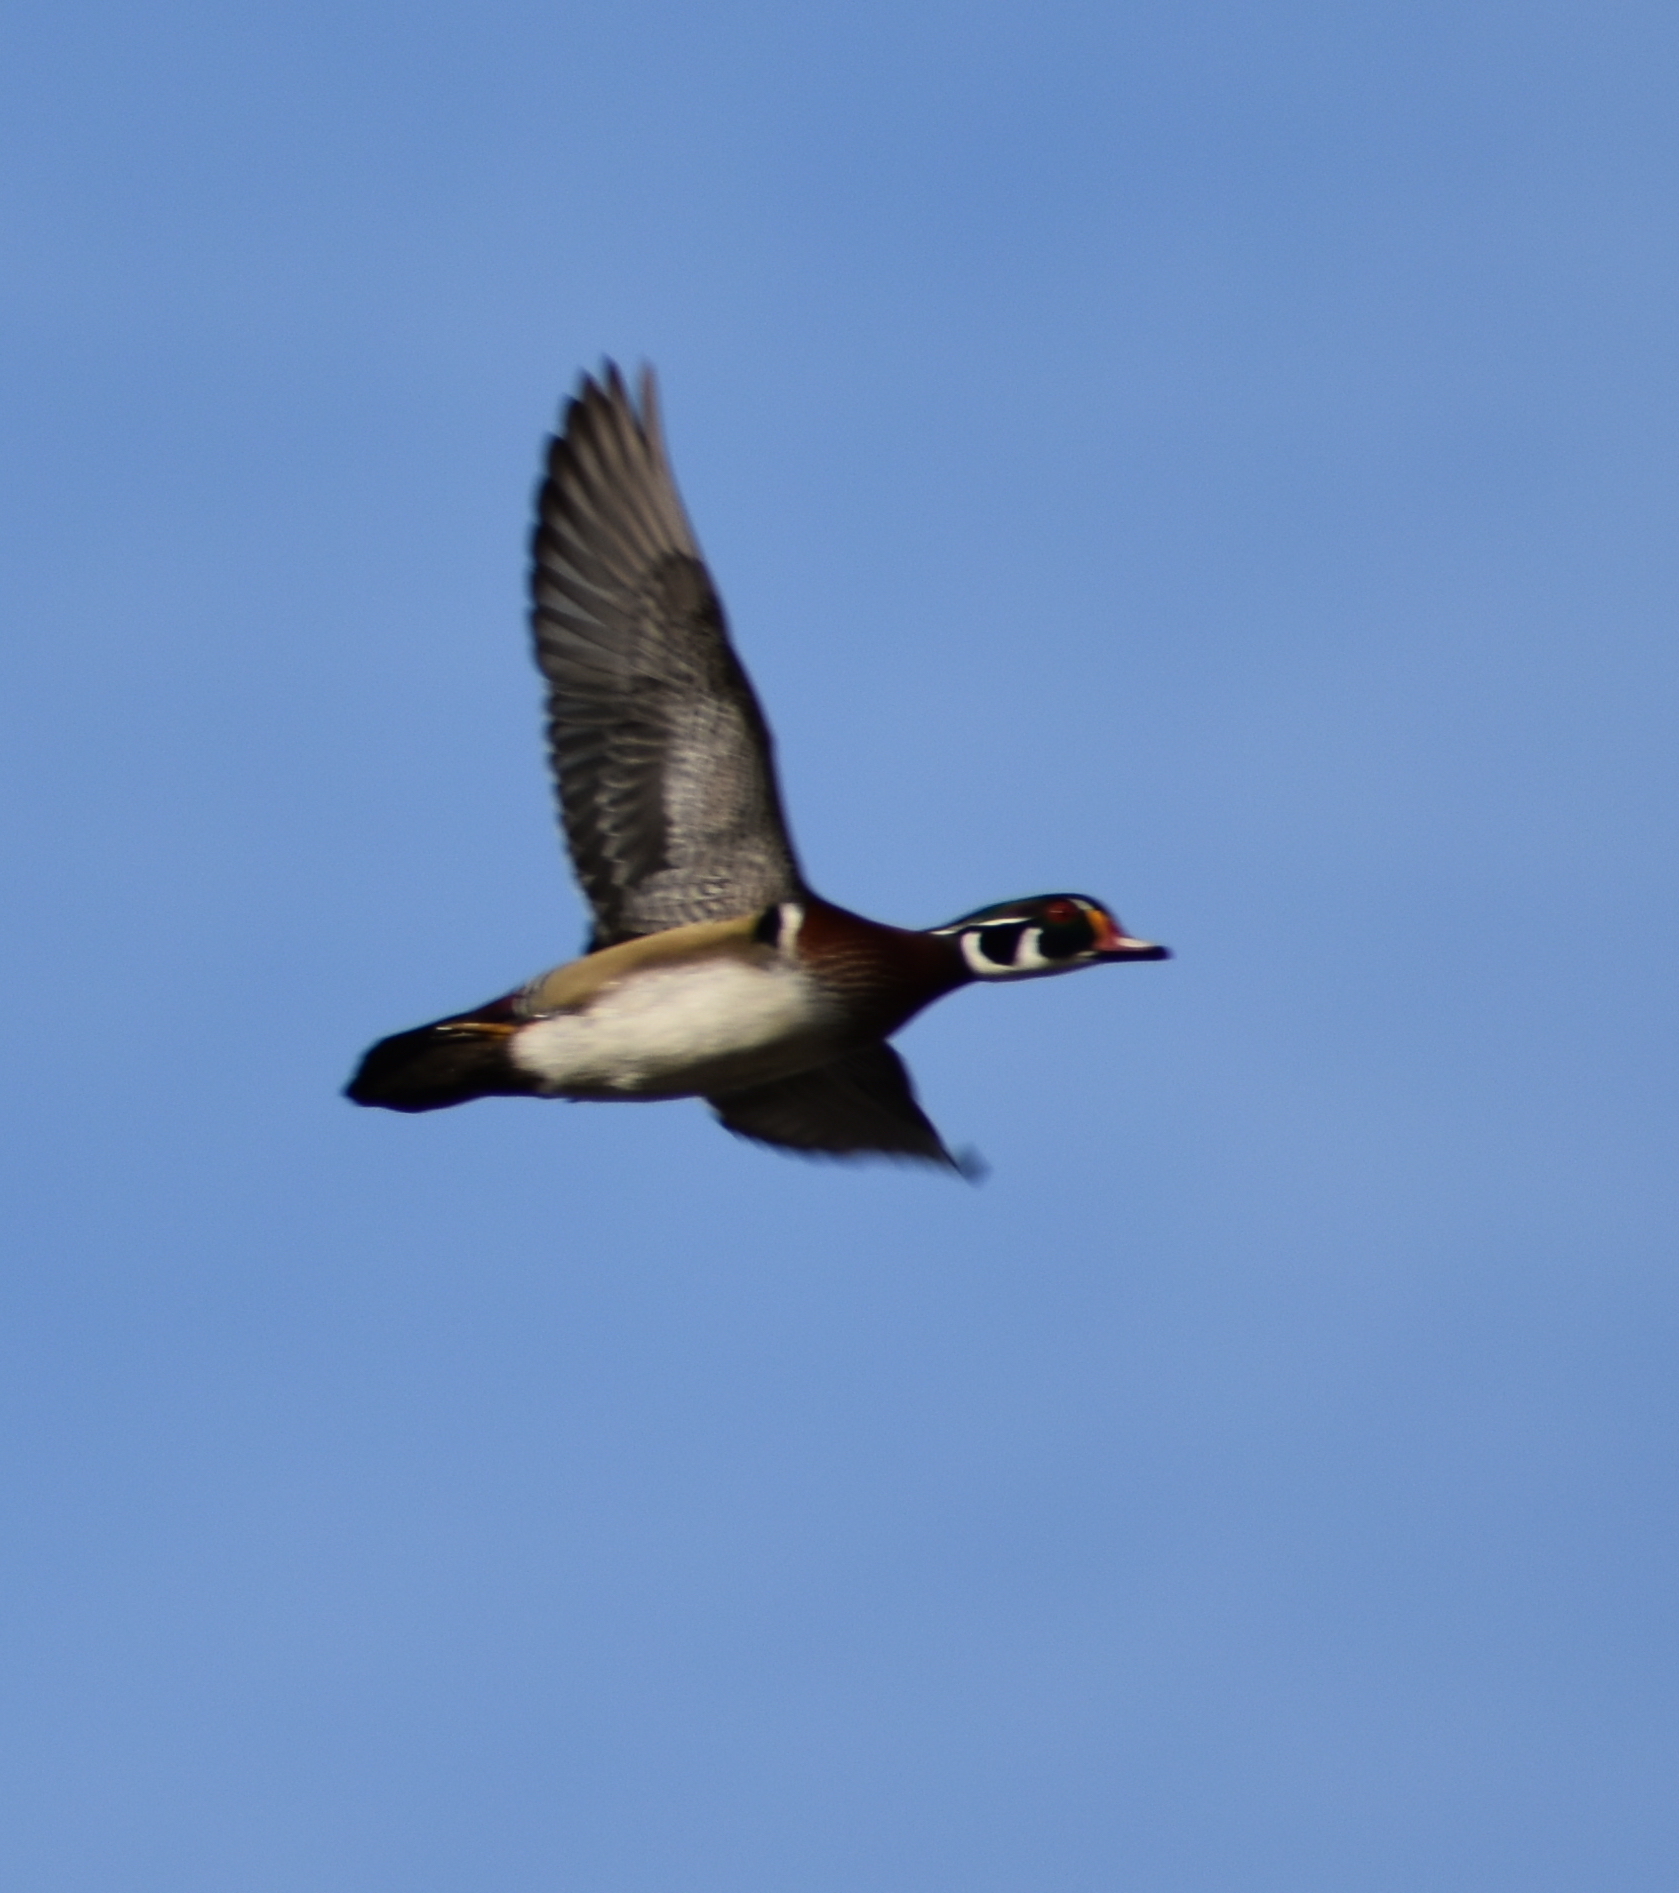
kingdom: Animalia
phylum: Chordata
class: Aves
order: Anseriformes
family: Anatidae
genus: Aix
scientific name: Aix sponsa
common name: Wood duck
